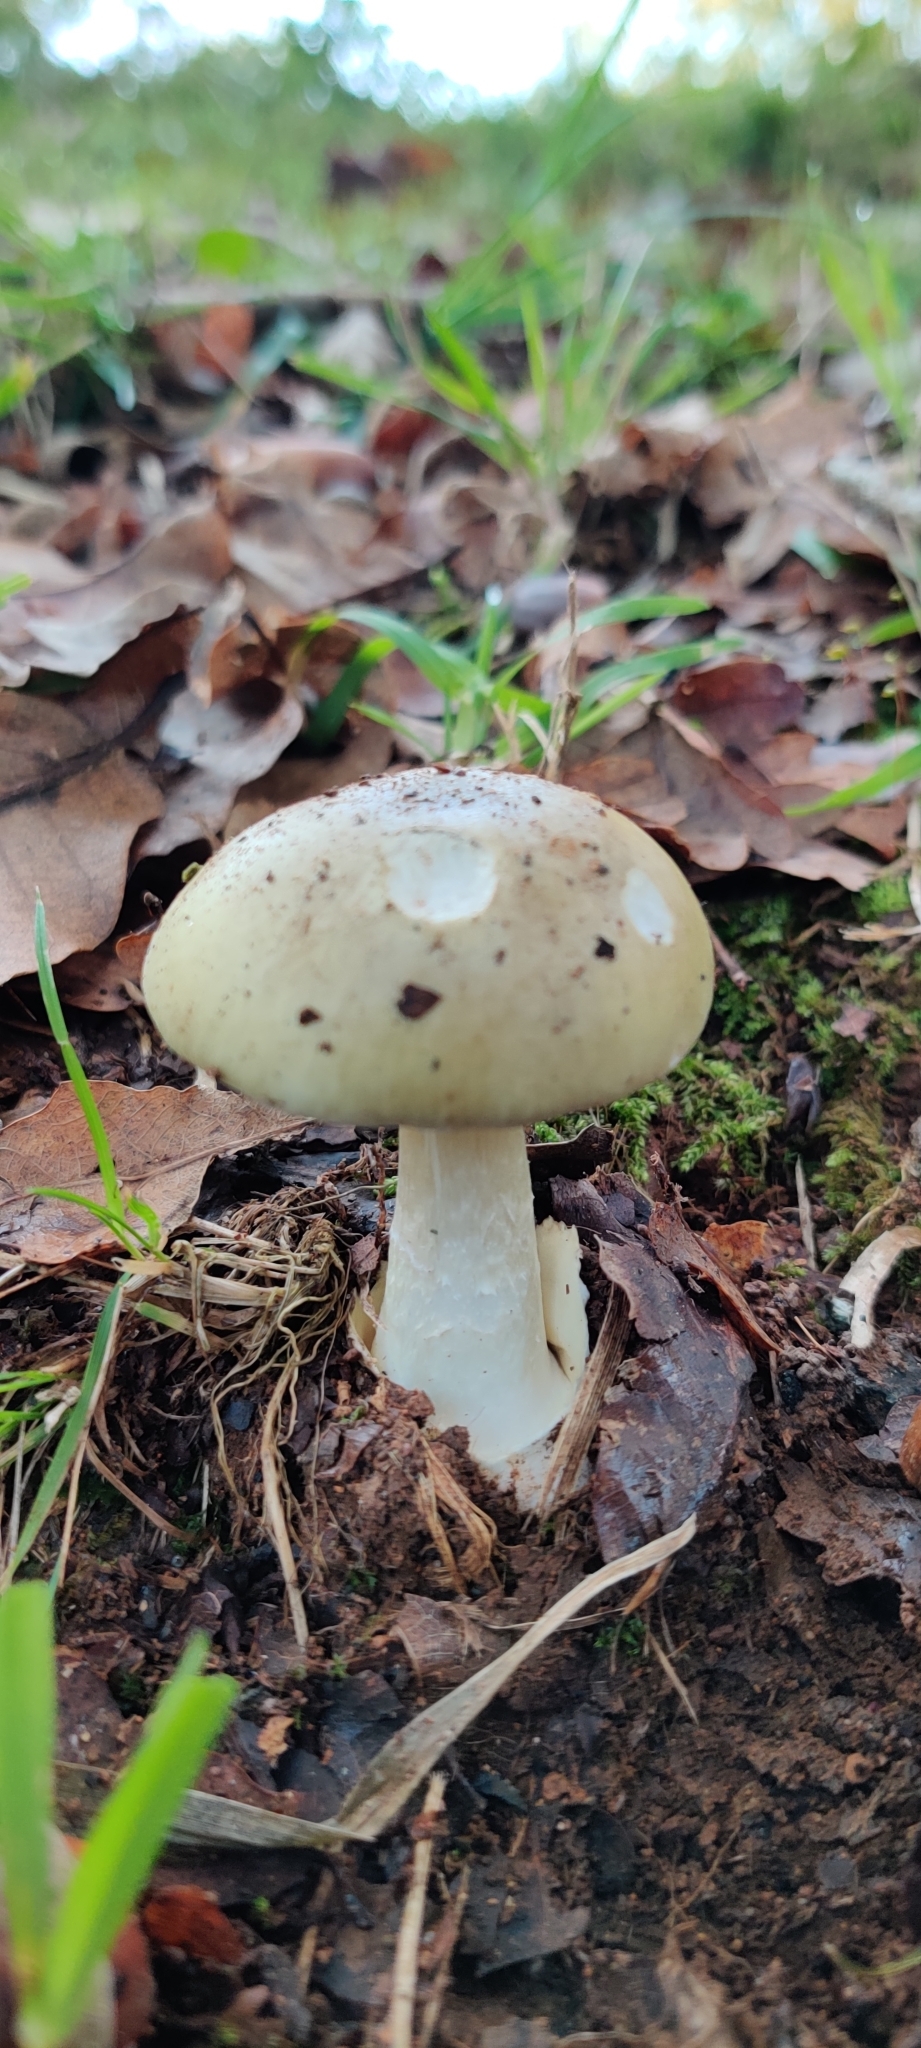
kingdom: Fungi
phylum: Basidiomycota
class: Agaricomycetes
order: Agaricales
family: Amanitaceae
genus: Amanita
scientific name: Amanita phalloides
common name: Death cap
